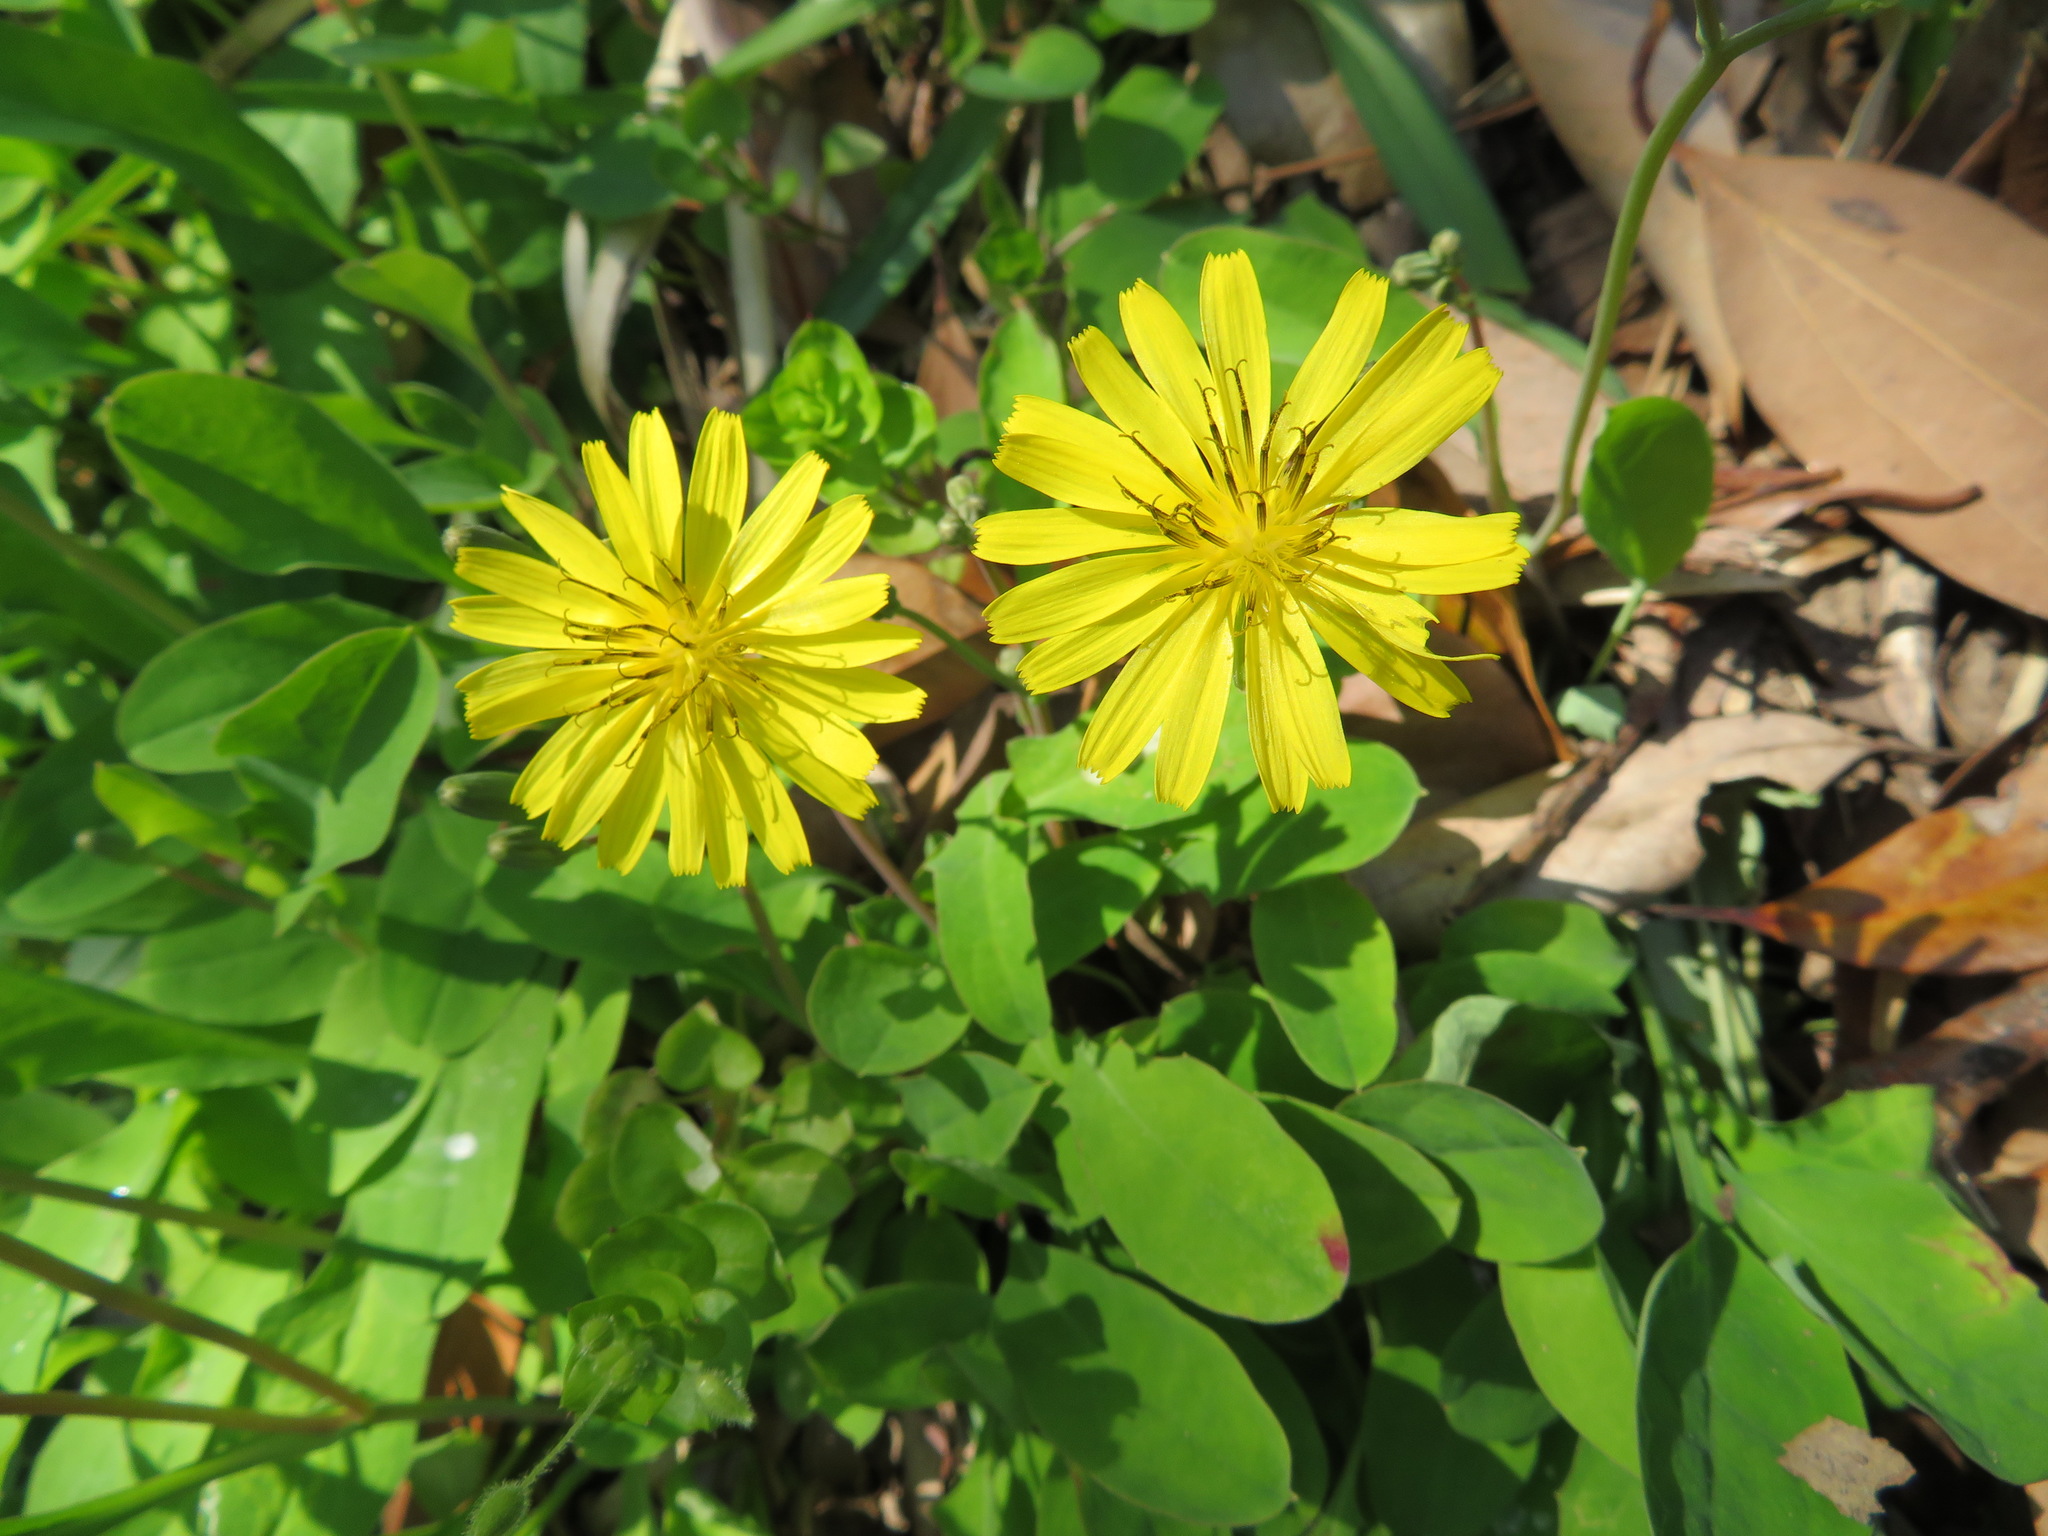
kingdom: Plantae
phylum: Tracheophyta
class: Magnoliopsida
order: Asterales
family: Asteraceae
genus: Ixeris
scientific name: Ixeris stolonifera
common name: Creeping lettuce
